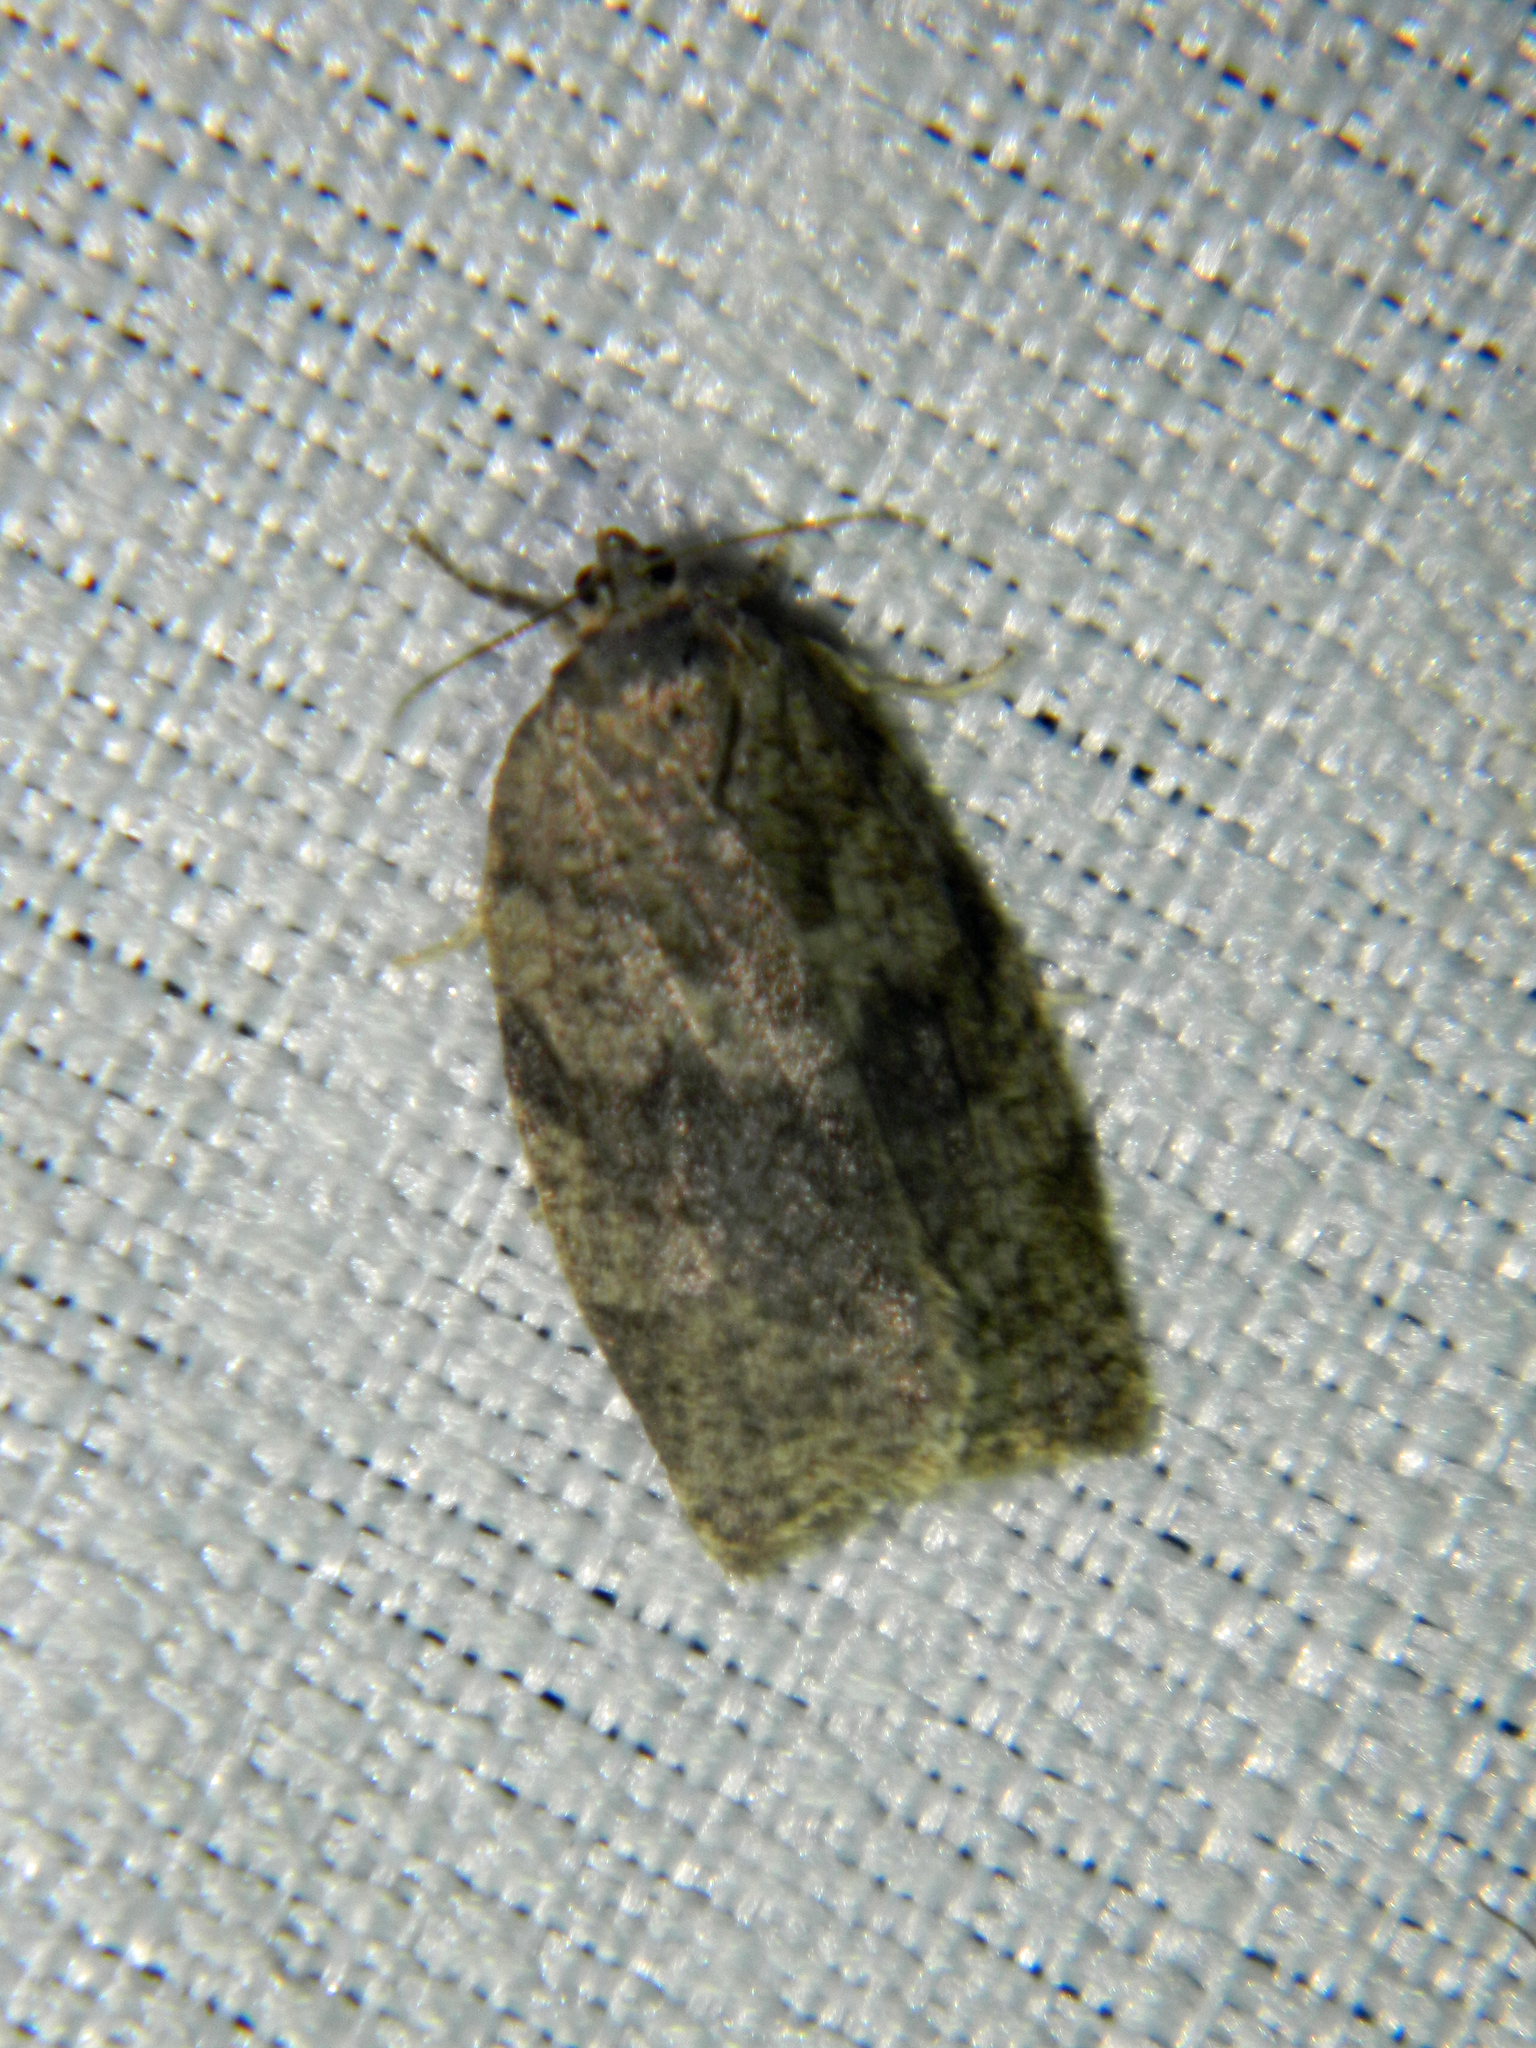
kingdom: Animalia
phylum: Arthropoda
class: Insecta
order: Lepidoptera
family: Tortricidae
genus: Choristoneura
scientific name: Choristoneura conflictana
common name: Large aspen tortrix
